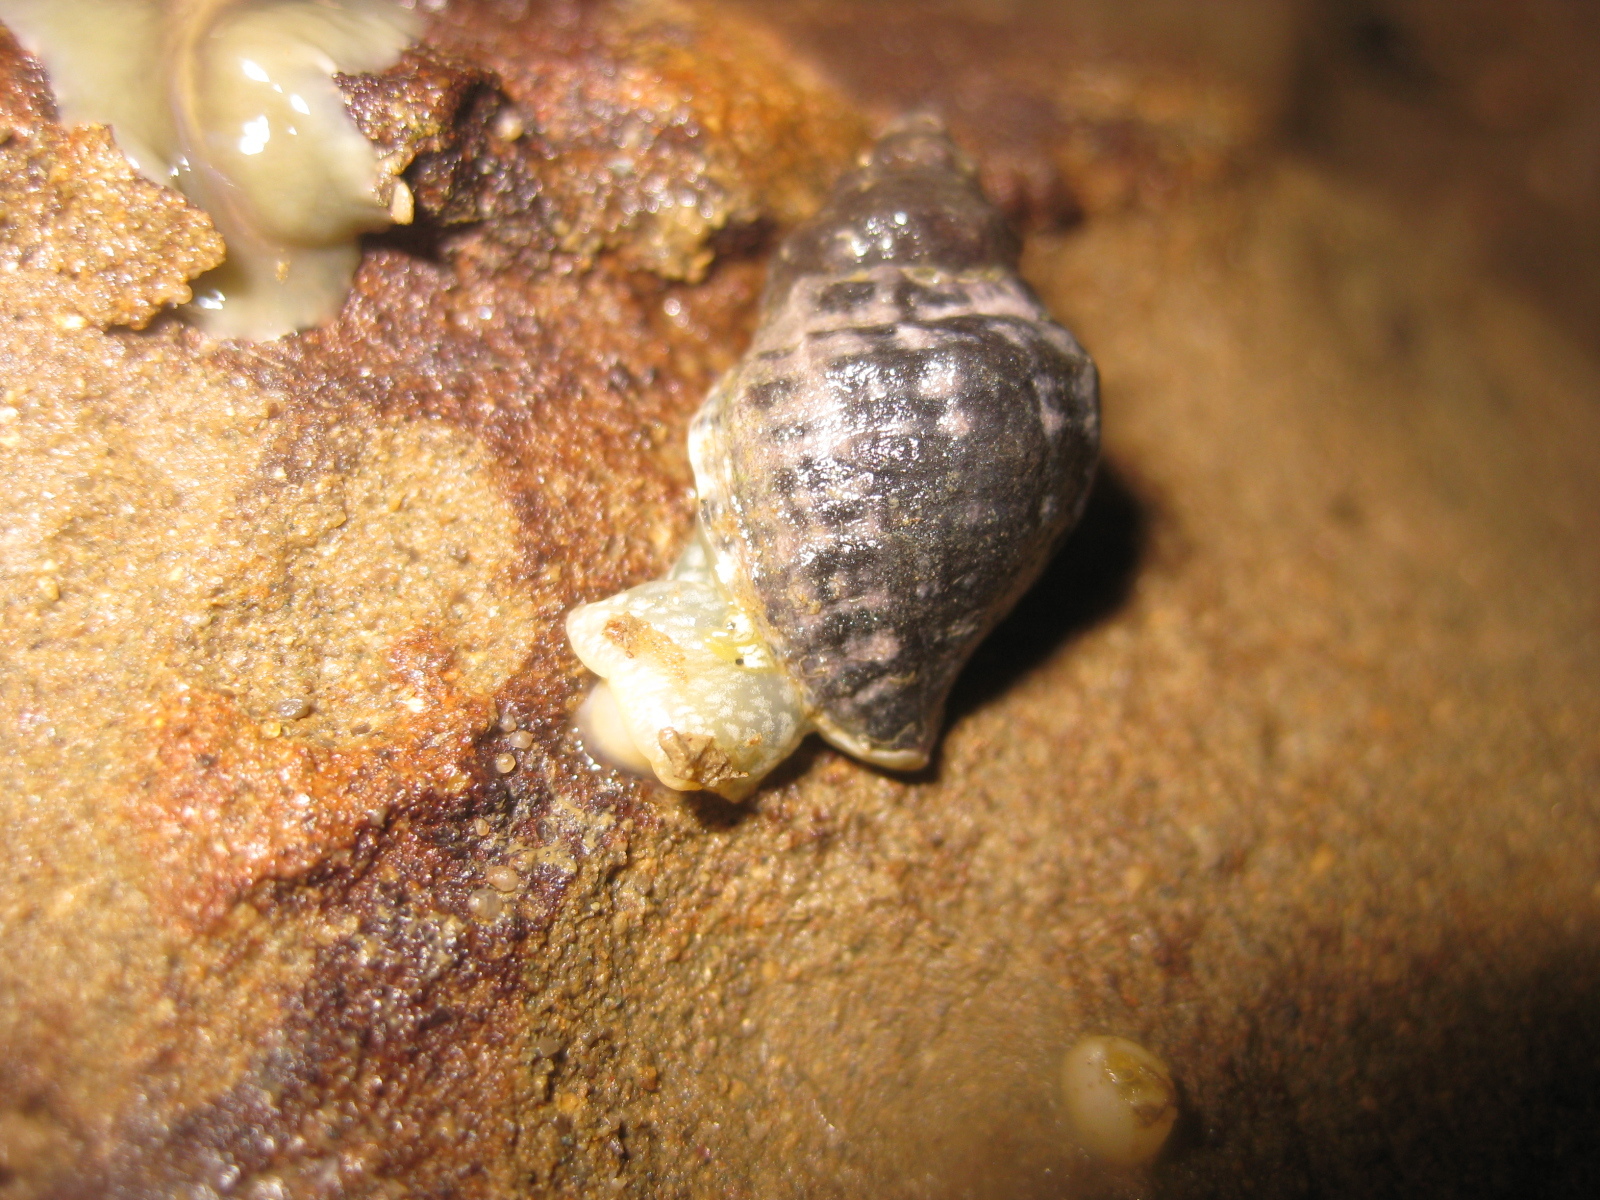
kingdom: Animalia
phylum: Mollusca
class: Gastropoda
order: Neogastropoda
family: Muricidae
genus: Haustrum
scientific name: Haustrum albomarginatum
